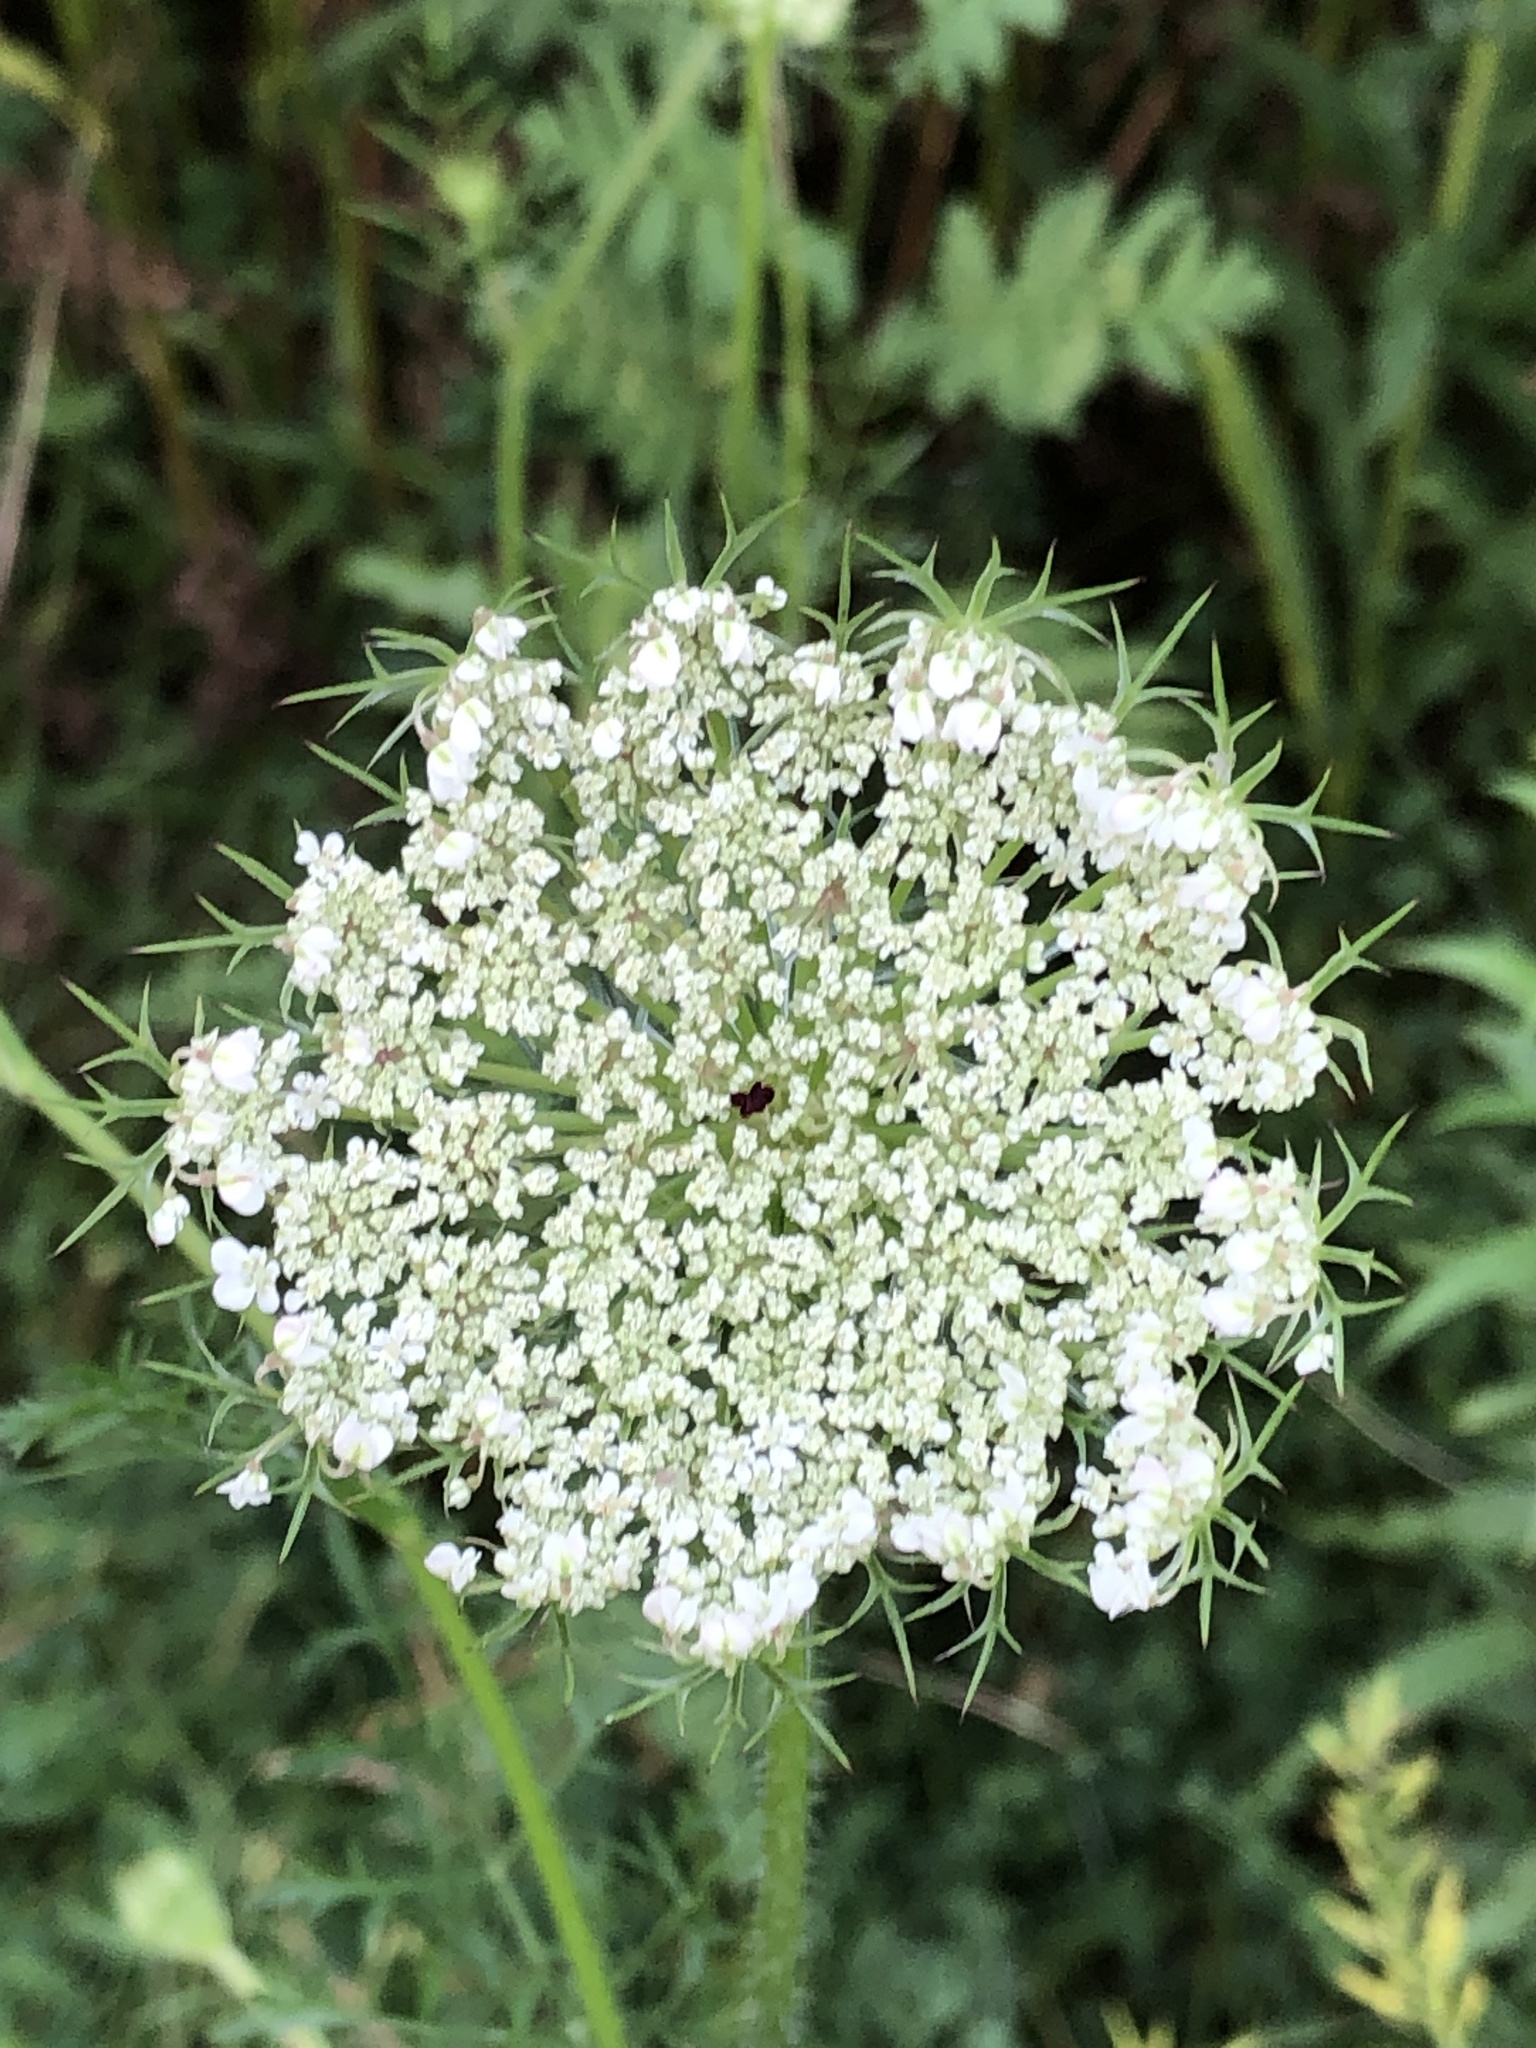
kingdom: Plantae
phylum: Tracheophyta
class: Magnoliopsida
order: Apiales
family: Apiaceae
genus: Daucus
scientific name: Daucus carota
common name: Wild carrot
